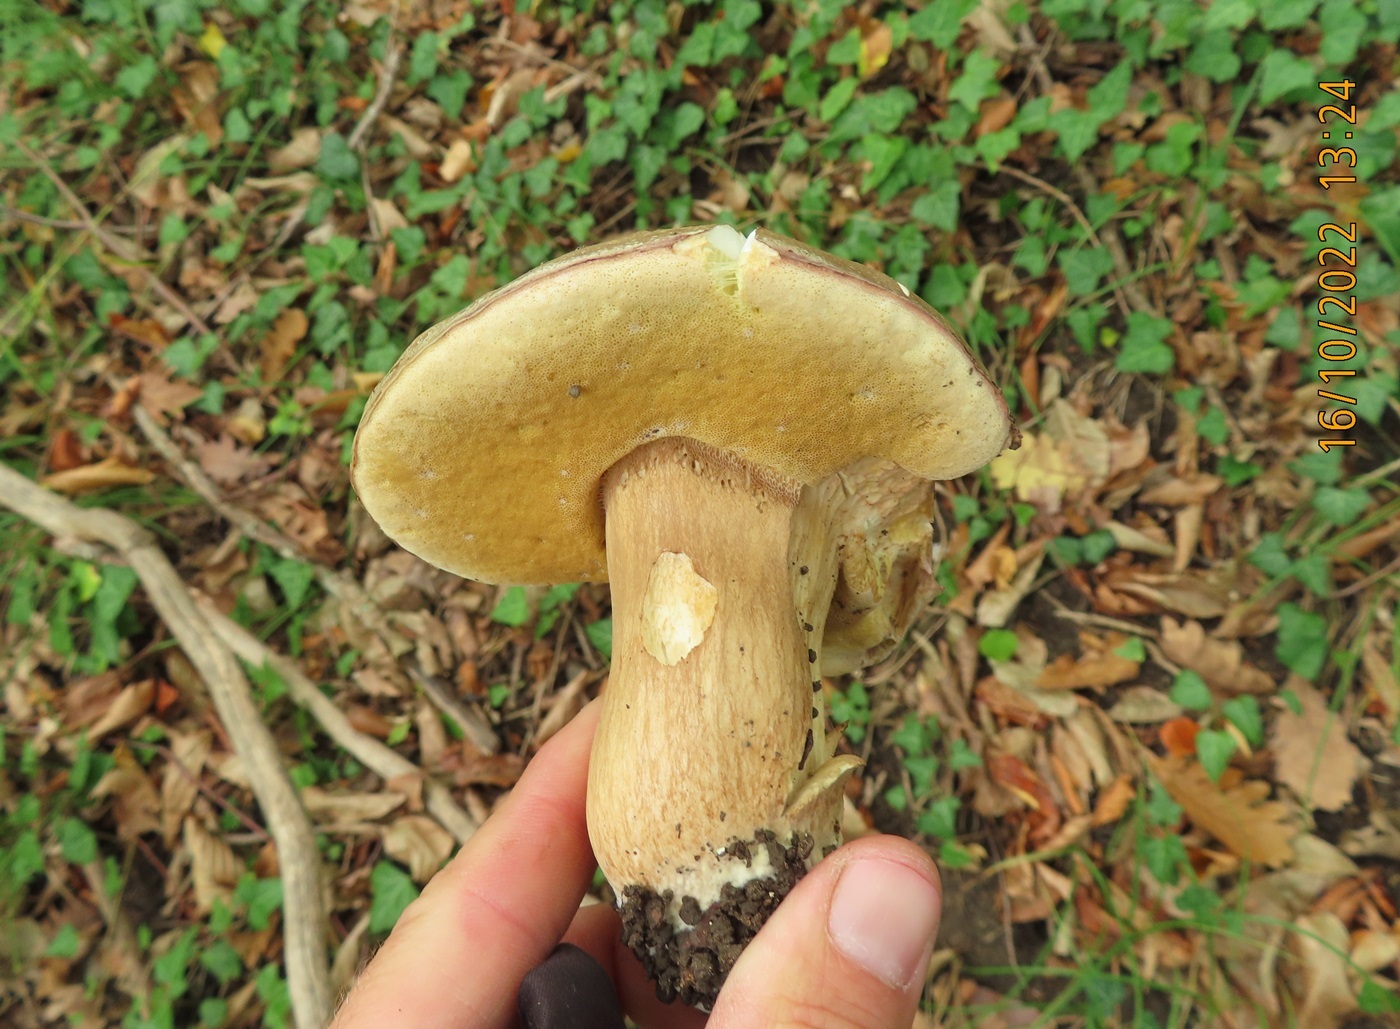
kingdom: Fungi
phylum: Basidiomycota
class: Agaricomycetes
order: Boletales
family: Boletaceae
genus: Boletus
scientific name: Boletus reticulatus
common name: Summer bolete
